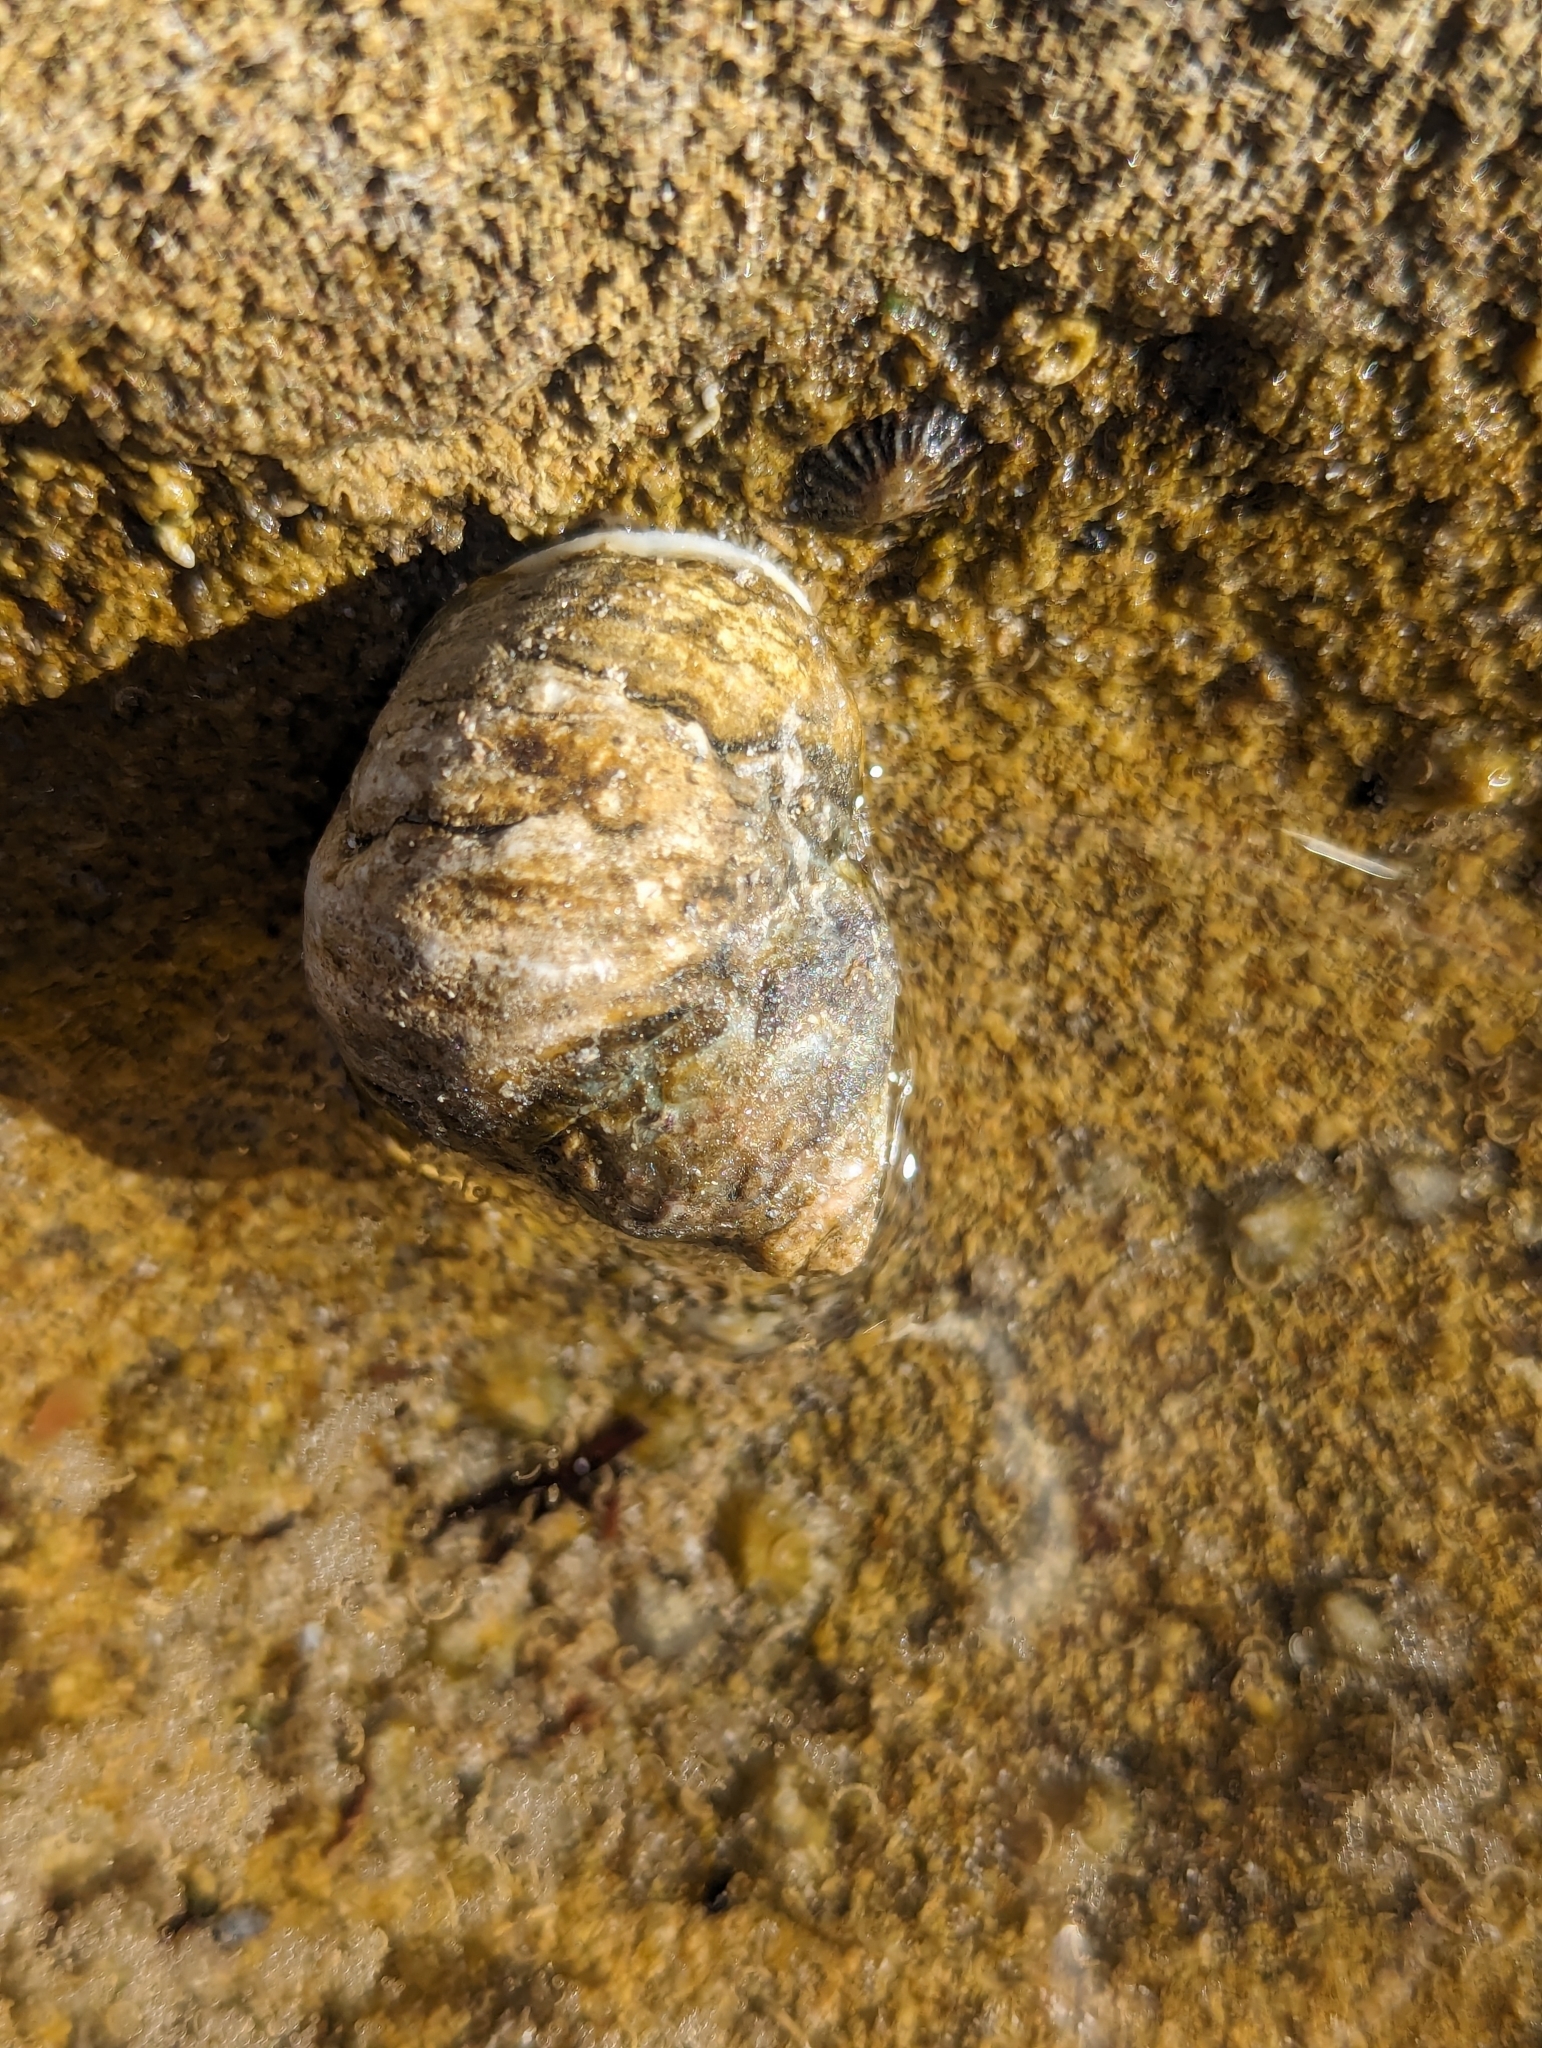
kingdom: Animalia
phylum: Mollusca
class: Gastropoda
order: Trochida
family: Trochidae
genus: Austrocochlea
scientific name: Austrocochlea constricta
